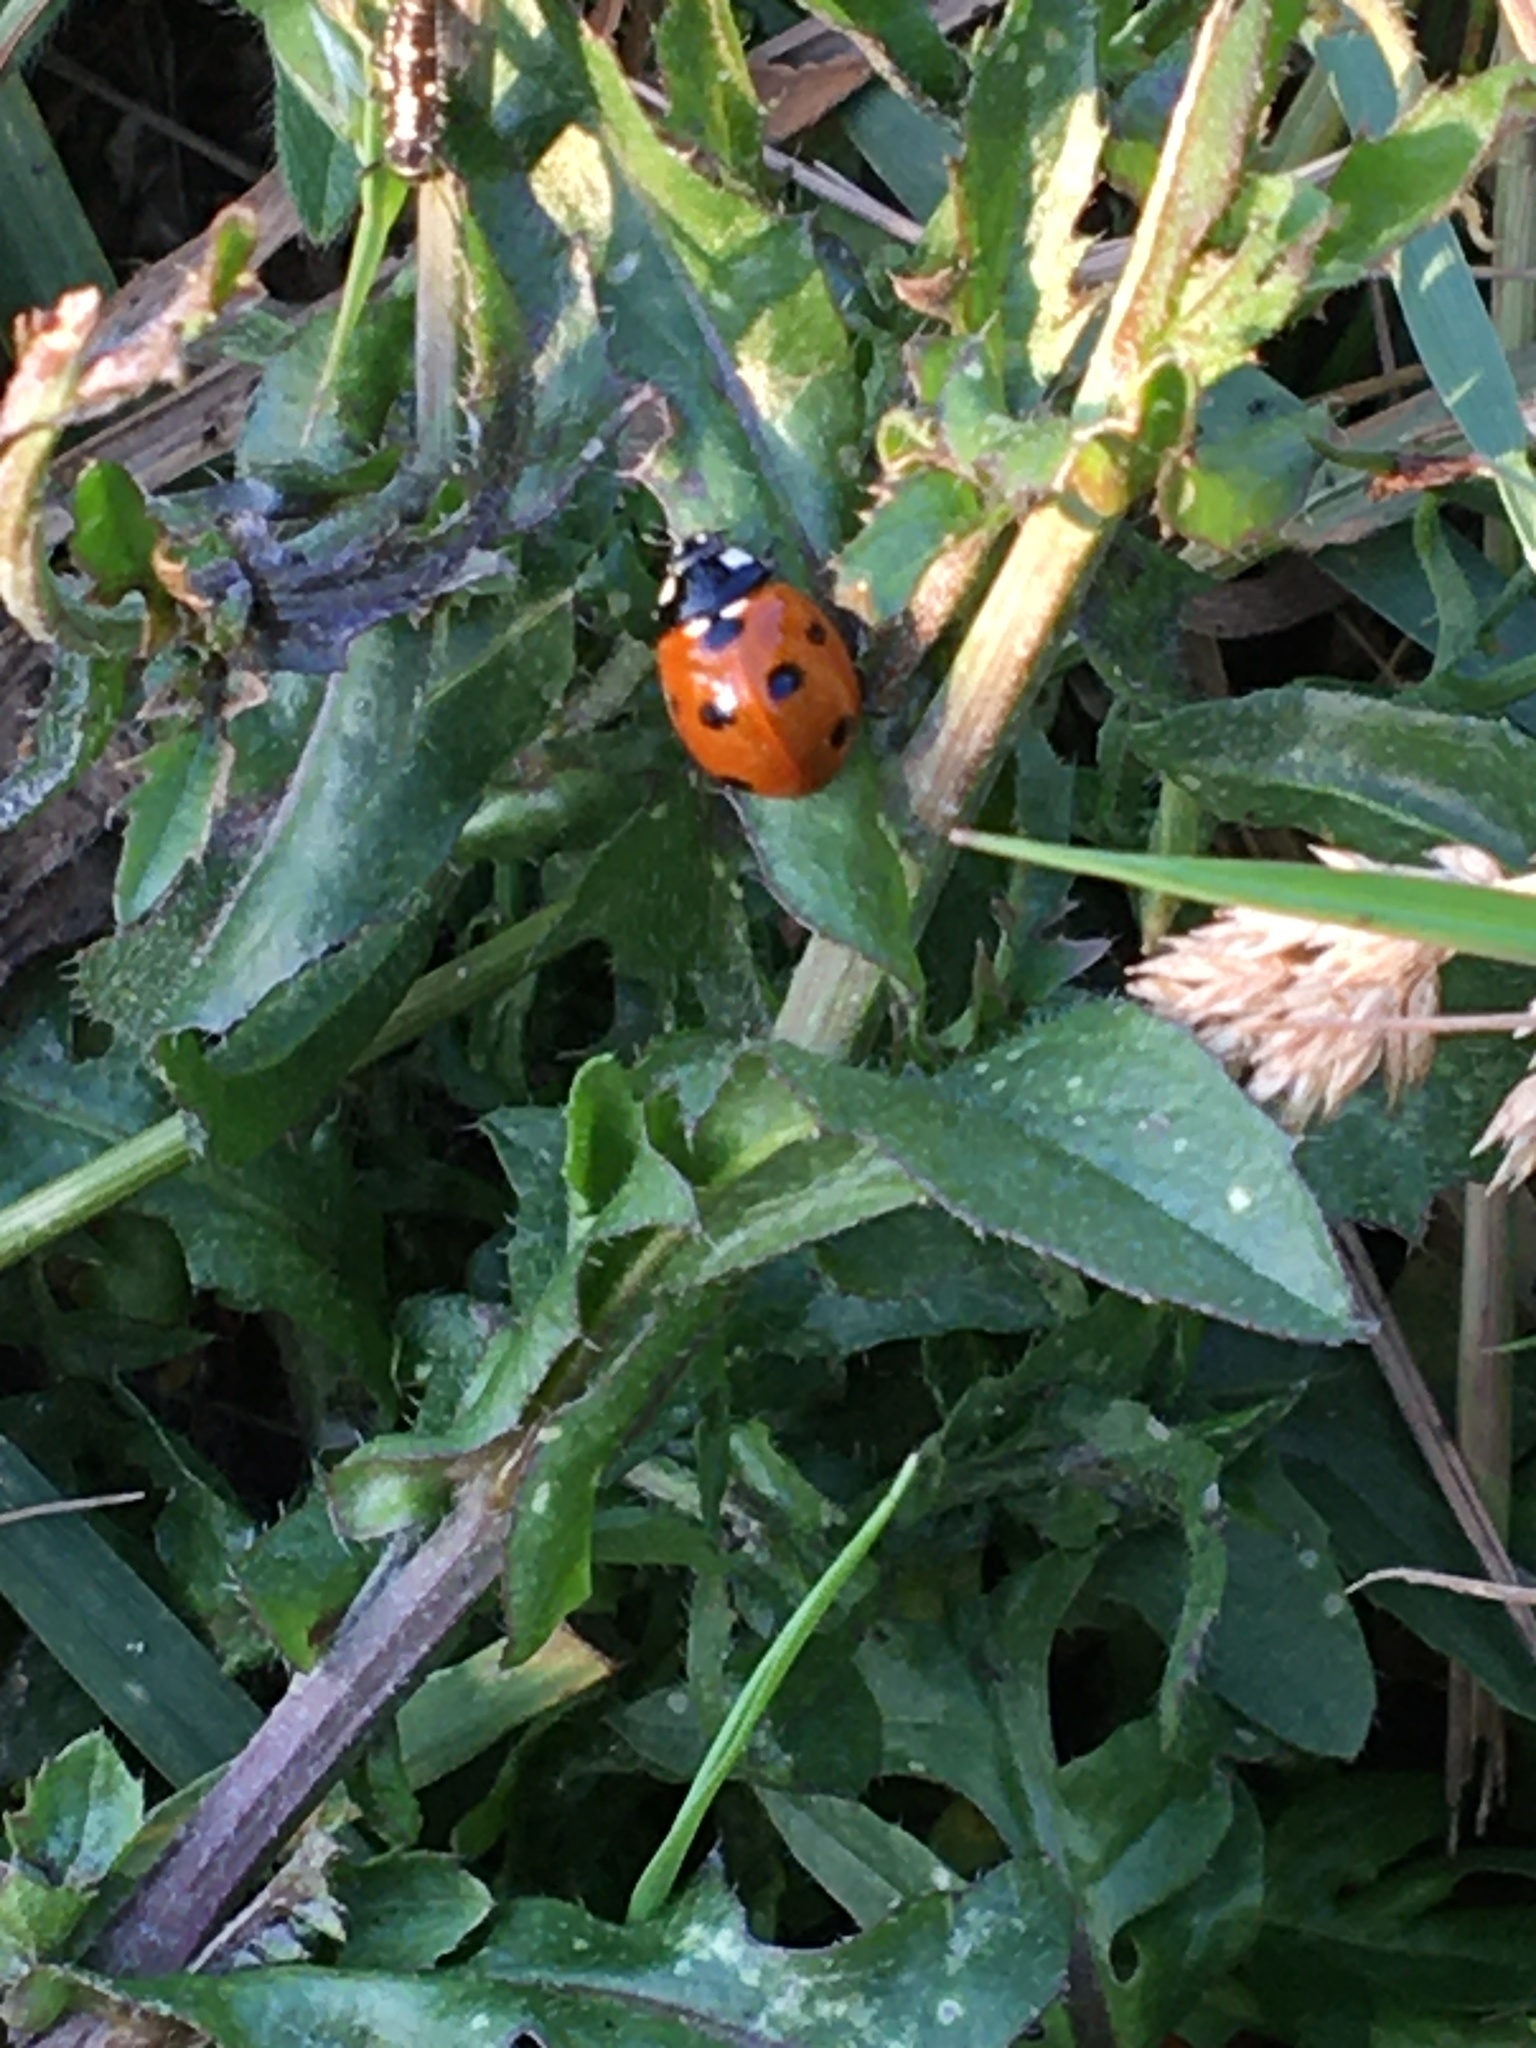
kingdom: Animalia
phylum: Arthropoda
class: Insecta
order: Coleoptera
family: Coccinellidae
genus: Coccinella
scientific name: Coccinella septempunctata
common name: Sevenspotted lady beetle
